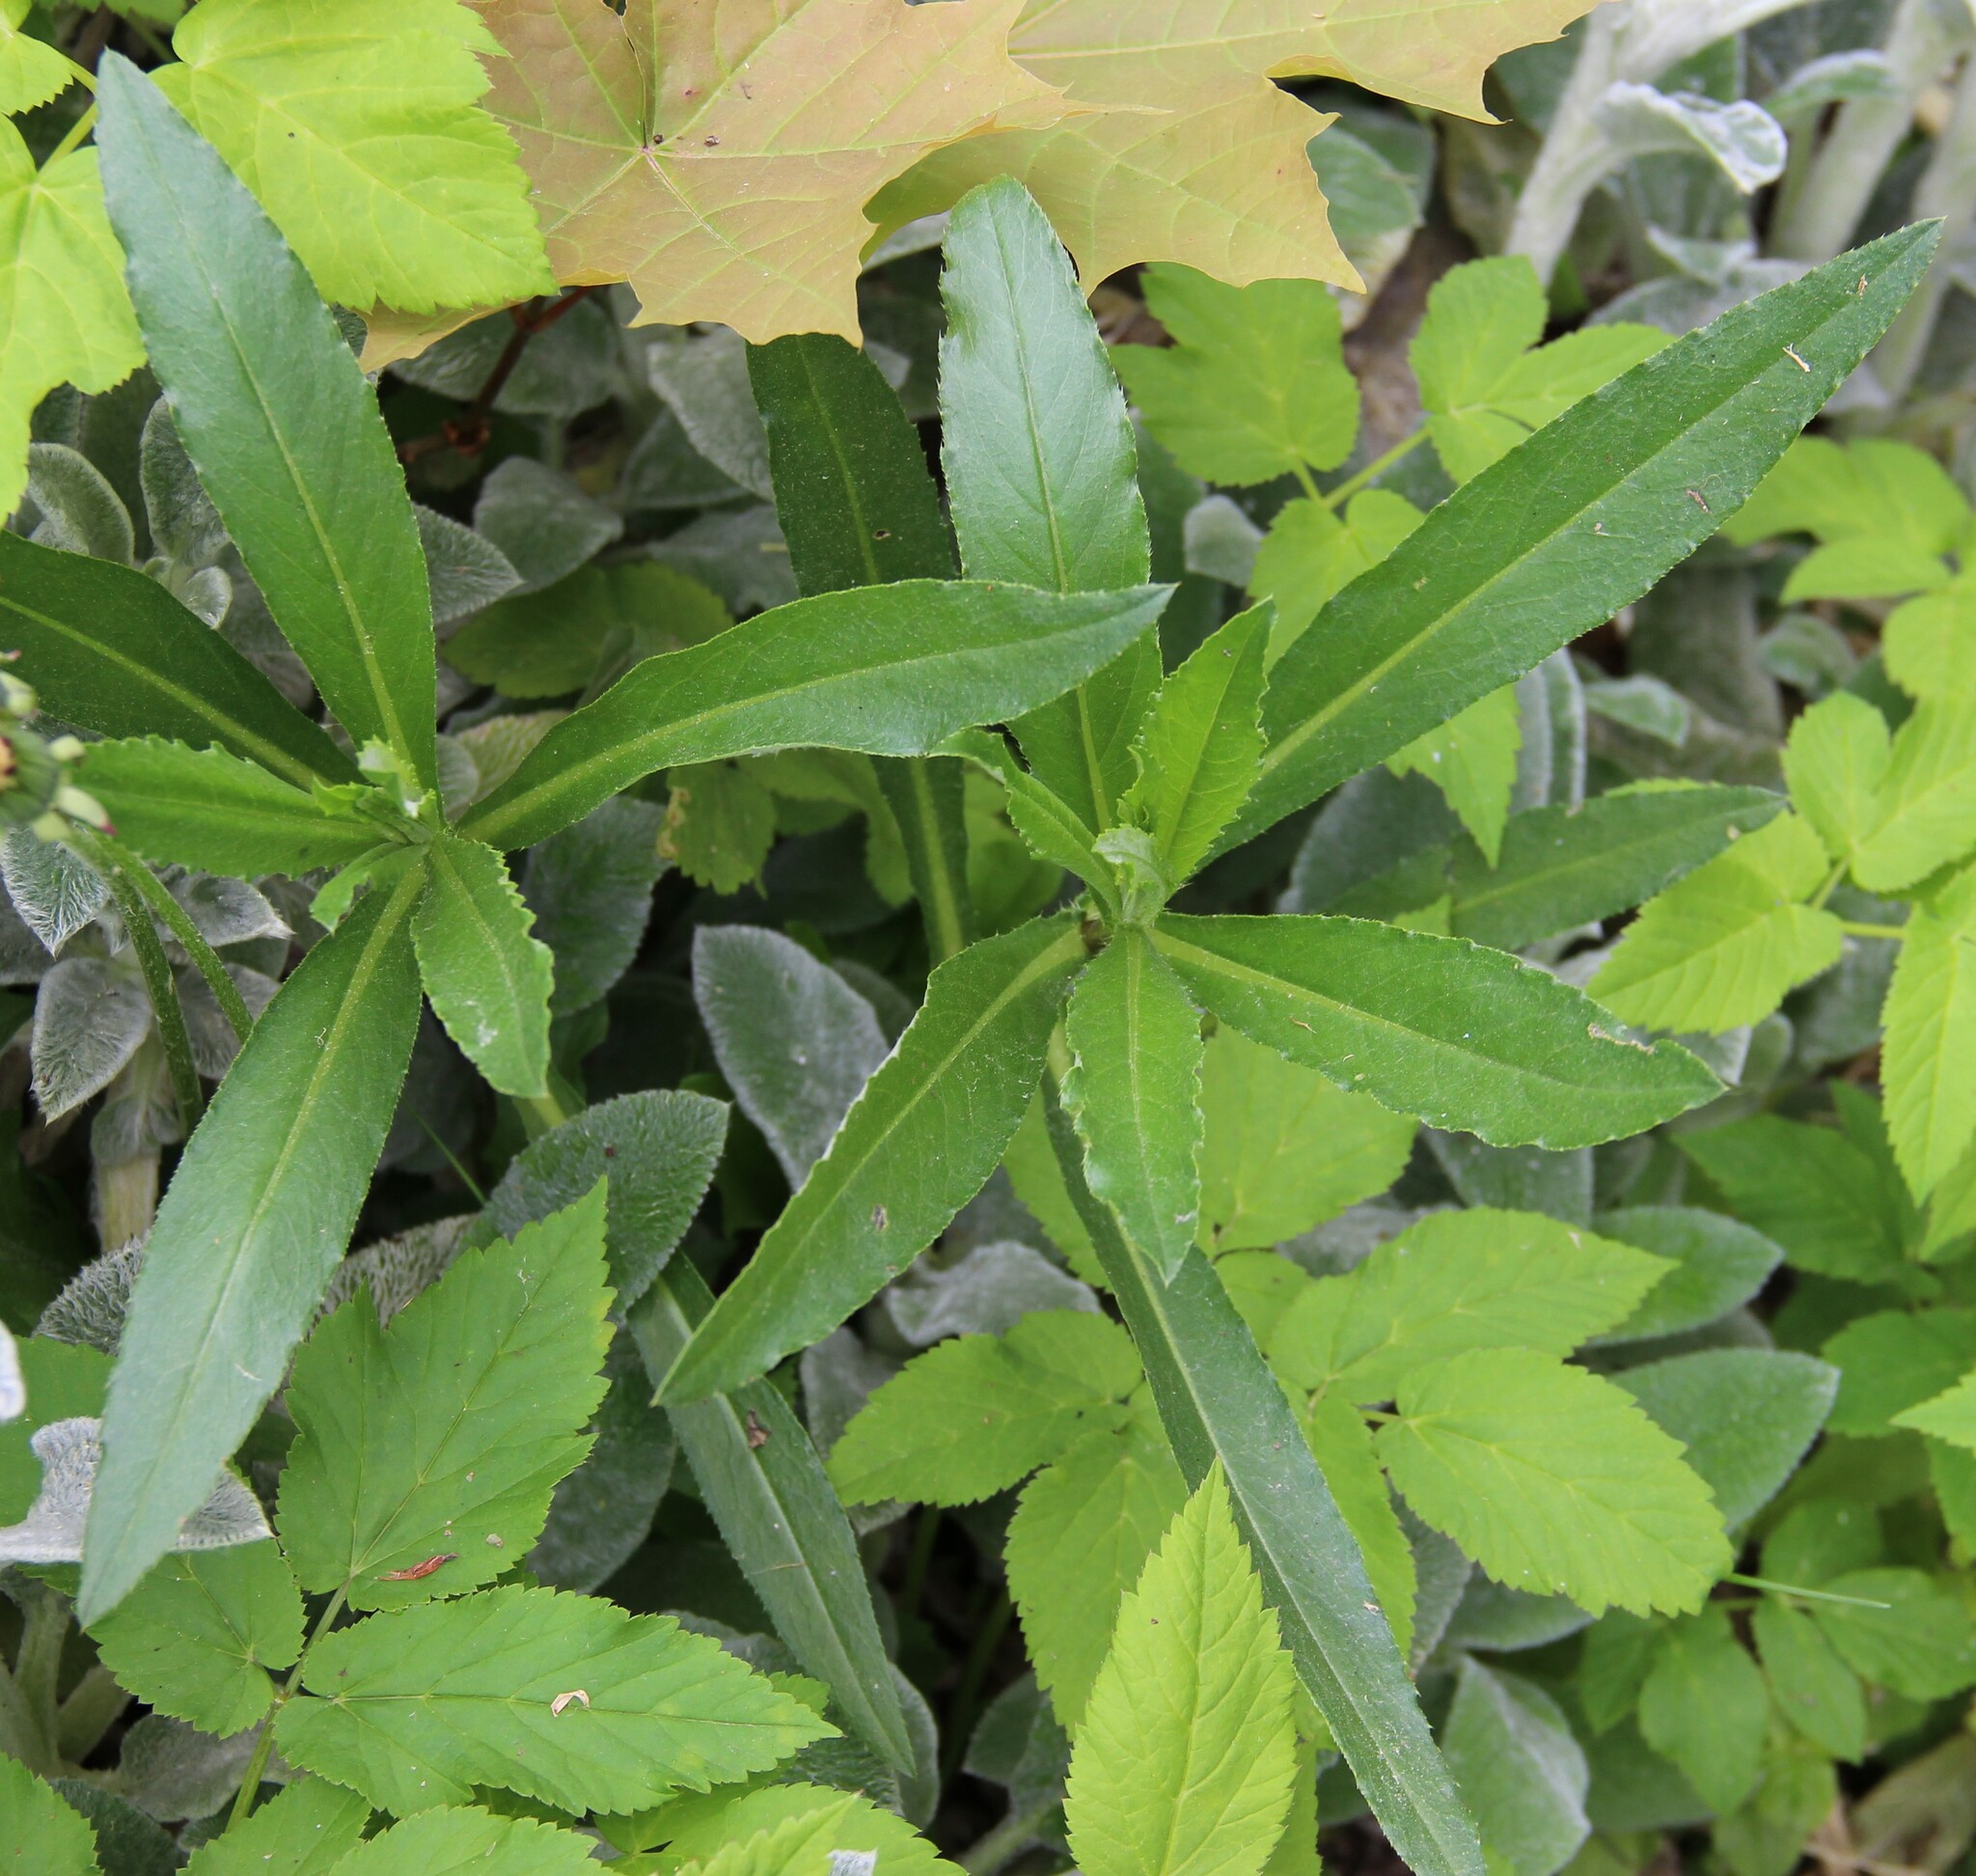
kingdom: Plantae
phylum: Tracheophyta
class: Magnoliopsida
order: Asterales
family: Asteraceae
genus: Cirsium
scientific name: Cirsium arvense
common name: Creeping thistle
